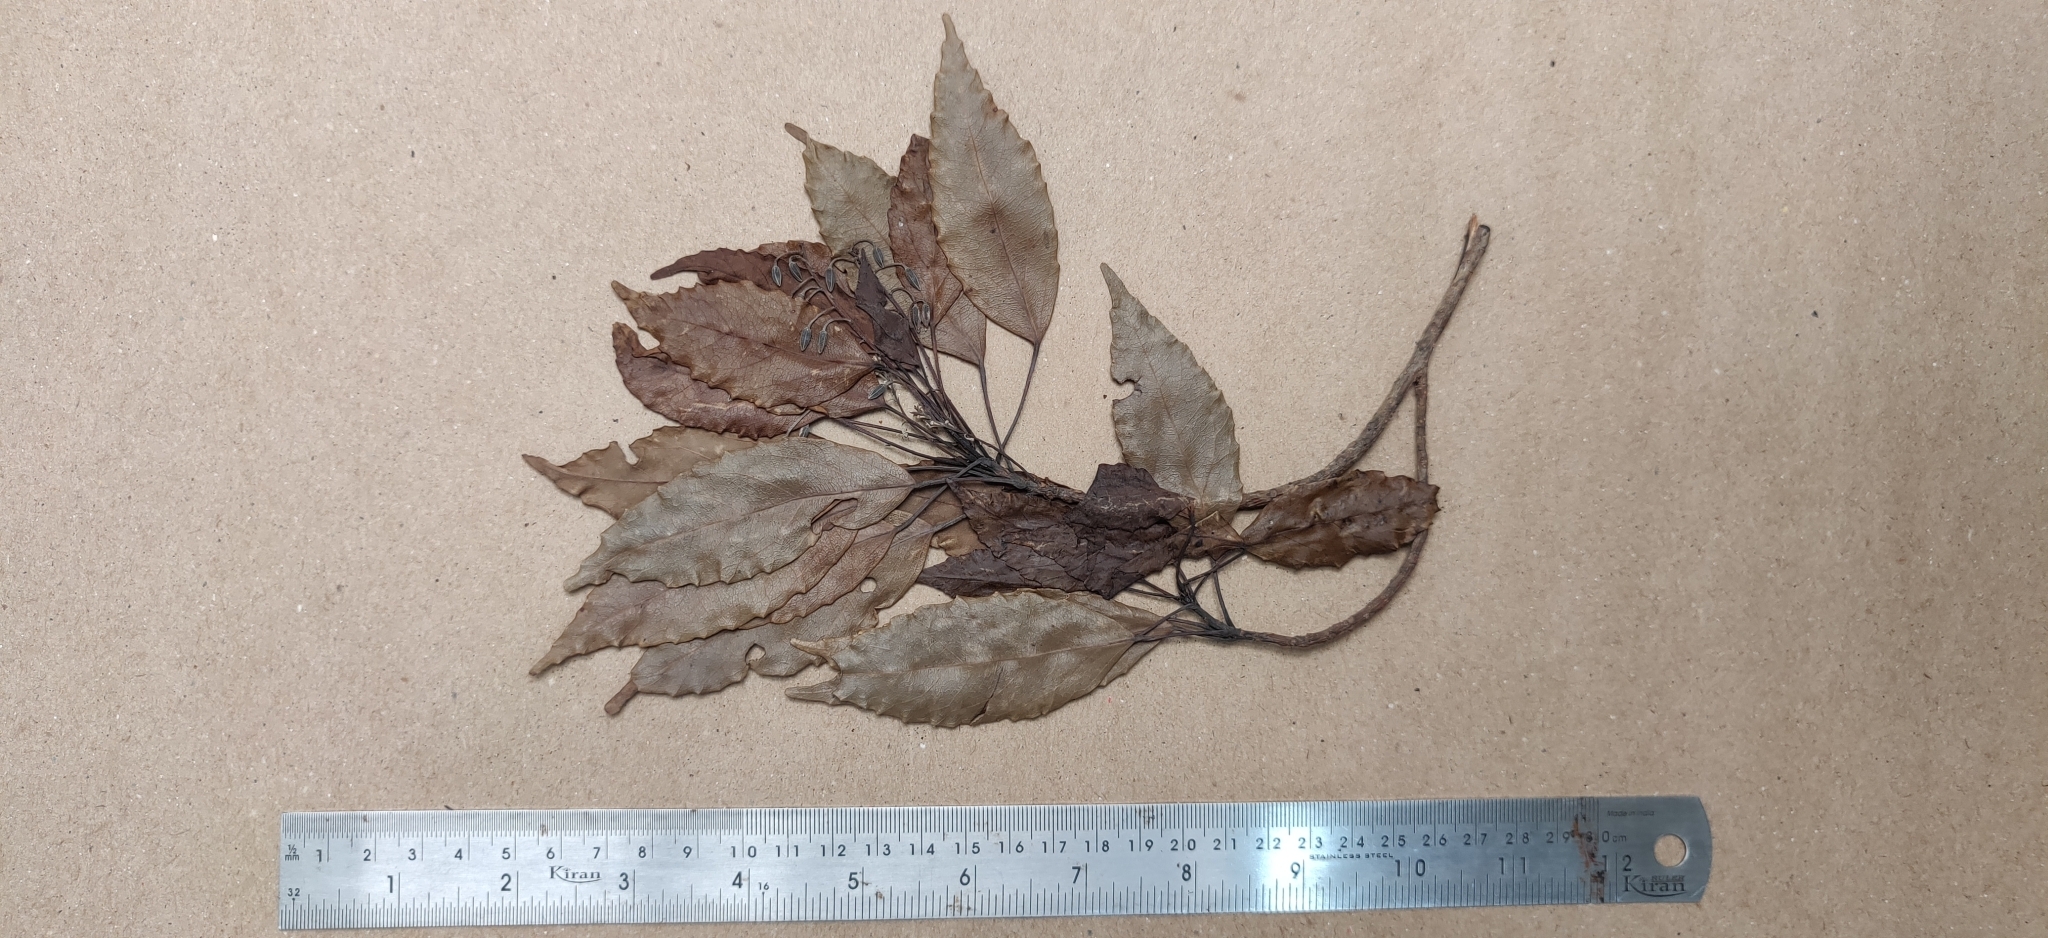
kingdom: Plantae
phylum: Tracheophyta
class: Magnoliopsida
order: Oxalidales
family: Elaeocarpaceae
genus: Elaeocarpus
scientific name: Elaeocarpus munroii
